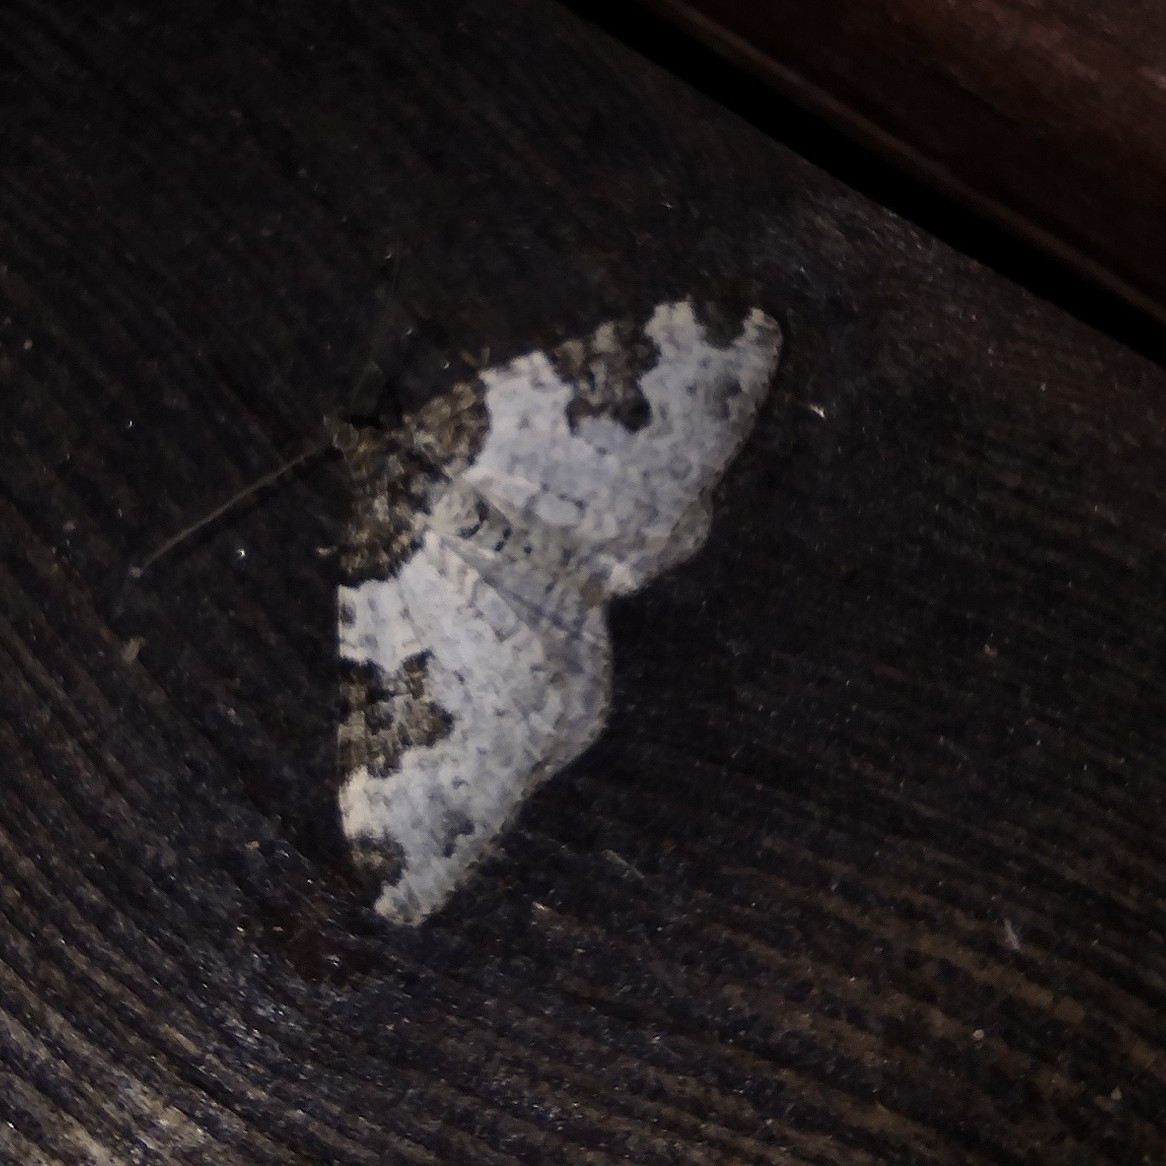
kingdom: Animalia
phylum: Arthropoda
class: Insecta
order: Lepidoptera
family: Geometridae
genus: Xanthorhoe
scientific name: Xanthorhoe fluctuata
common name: Garden carpet
